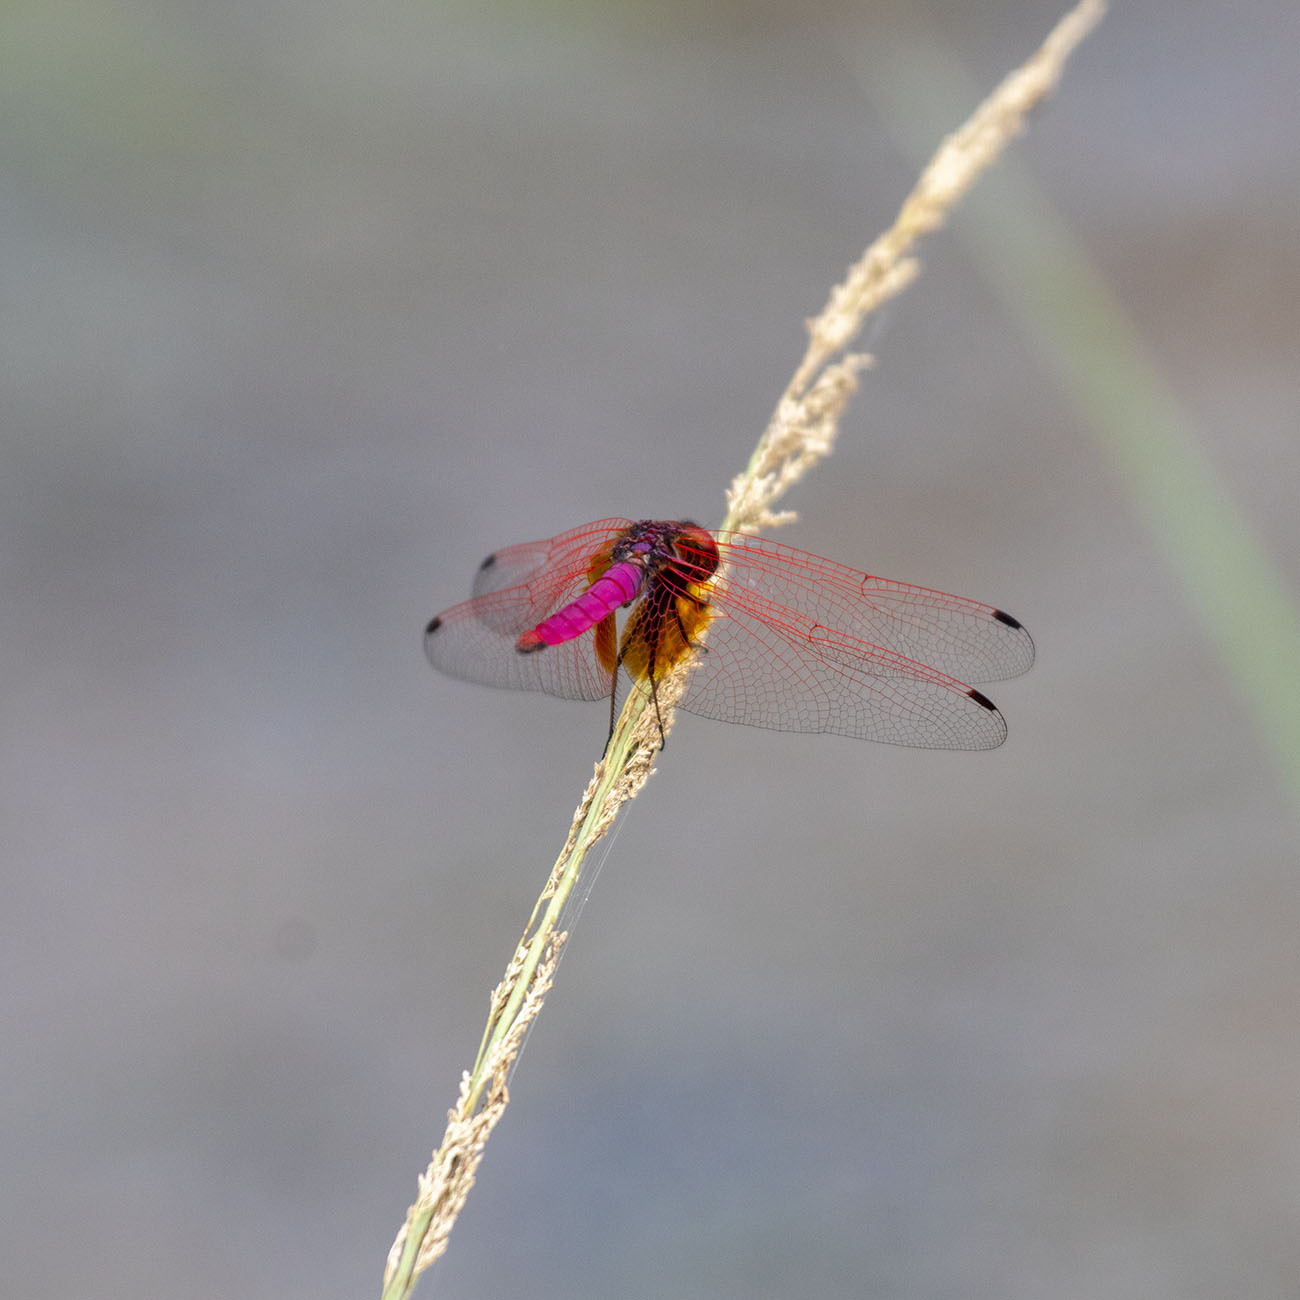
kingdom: Animalia
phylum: Arthropoda
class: Insecta
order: Odonata
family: Libellulidae
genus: Trithemis
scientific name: Trithemis aurora
